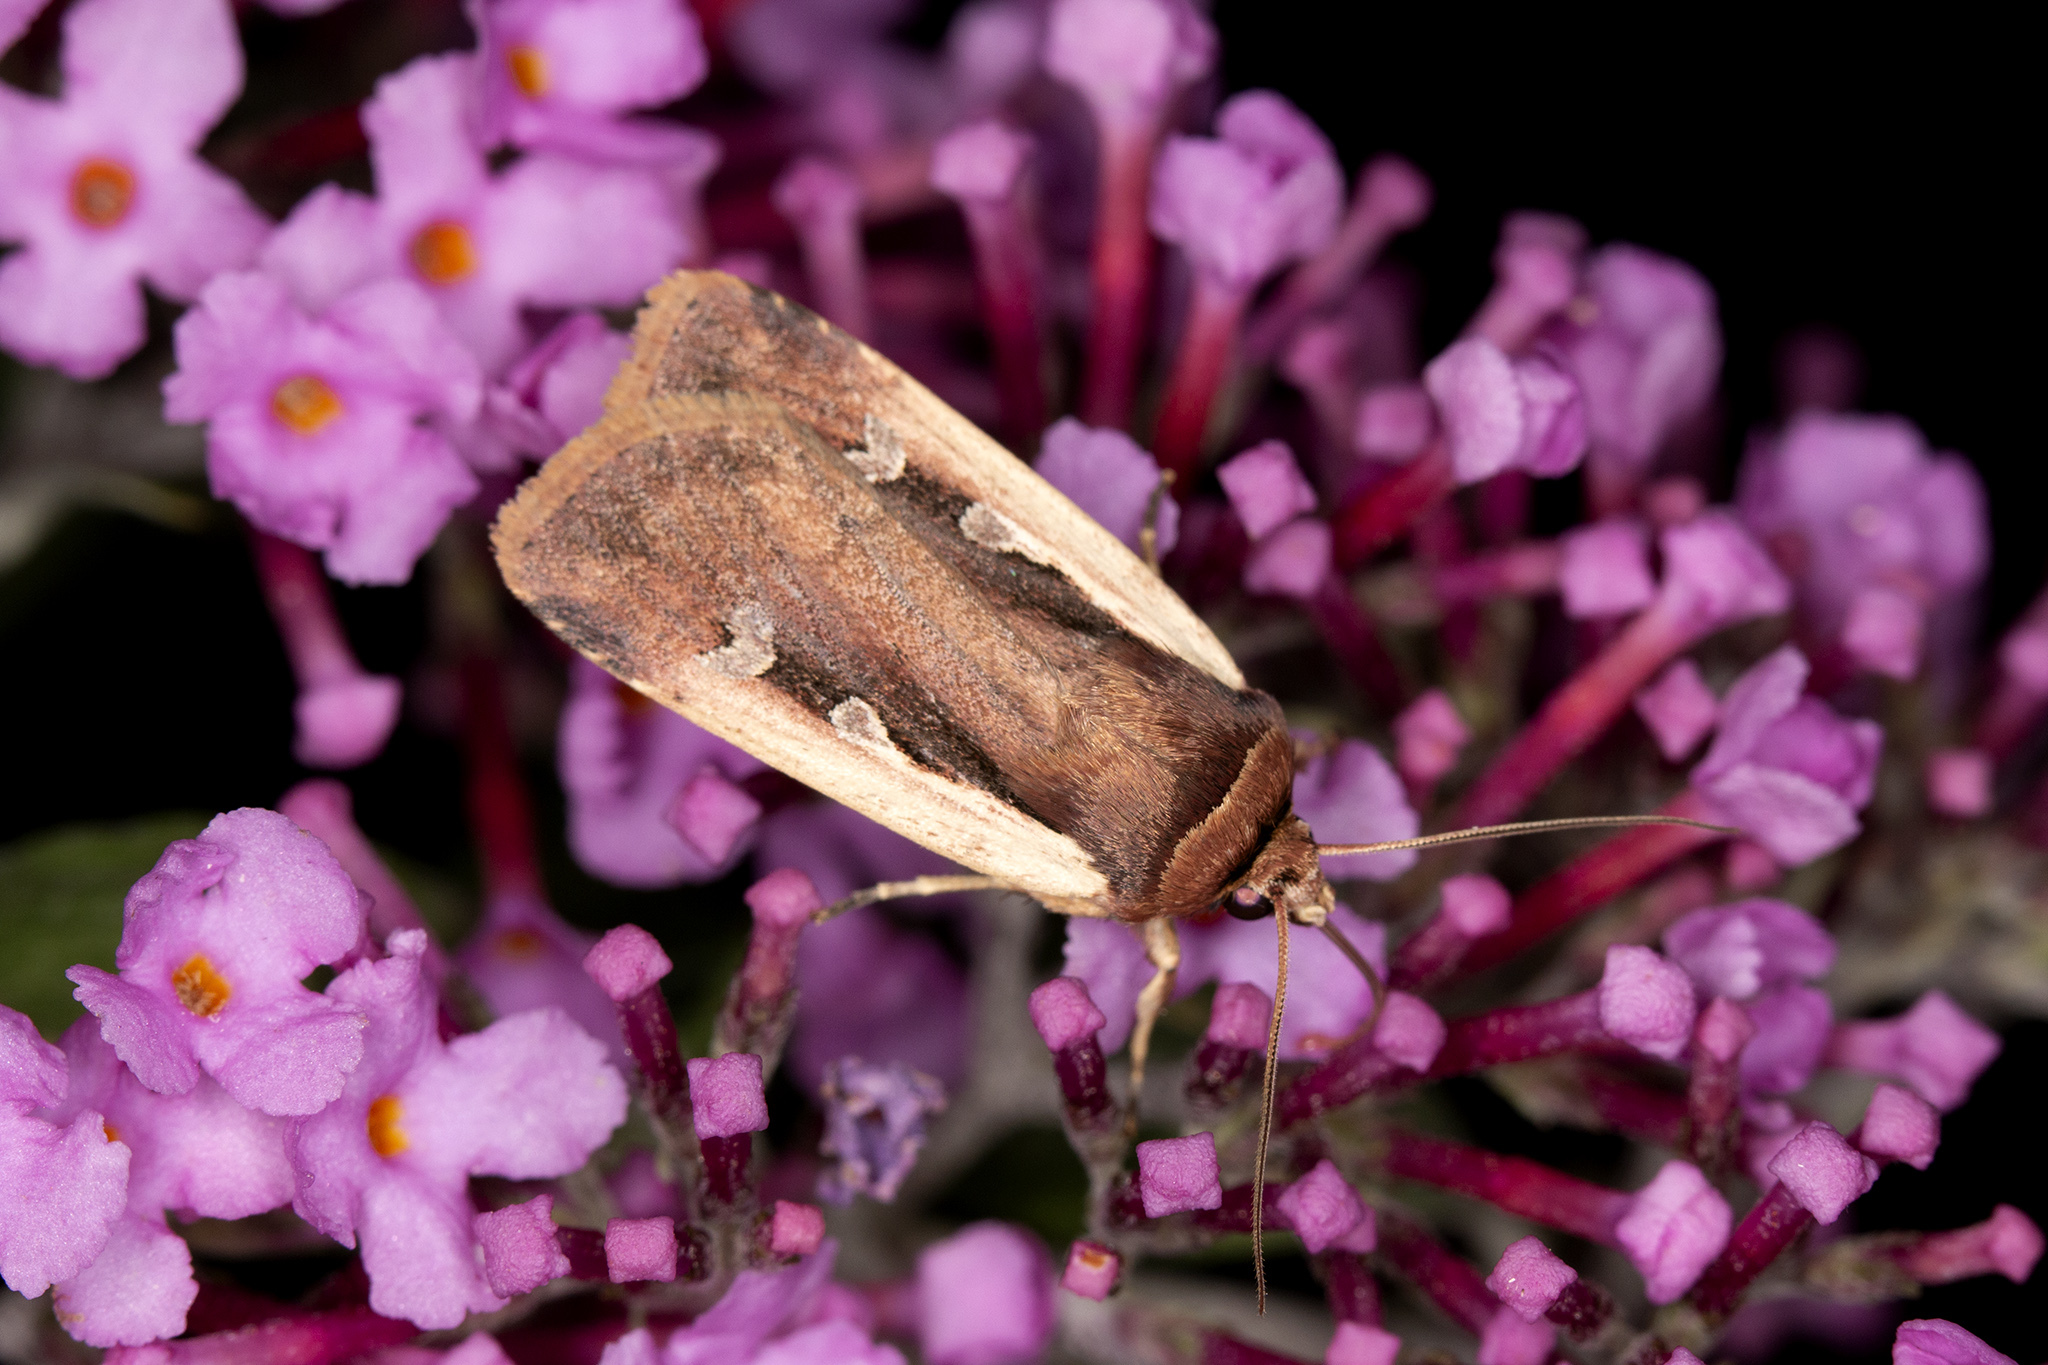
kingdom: Animalia
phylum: Arthropoda
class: Insecta
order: Lepidoptera
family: Noctuidae
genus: Ochropleura
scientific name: Ochropleura plecta
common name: Flame shoulder
